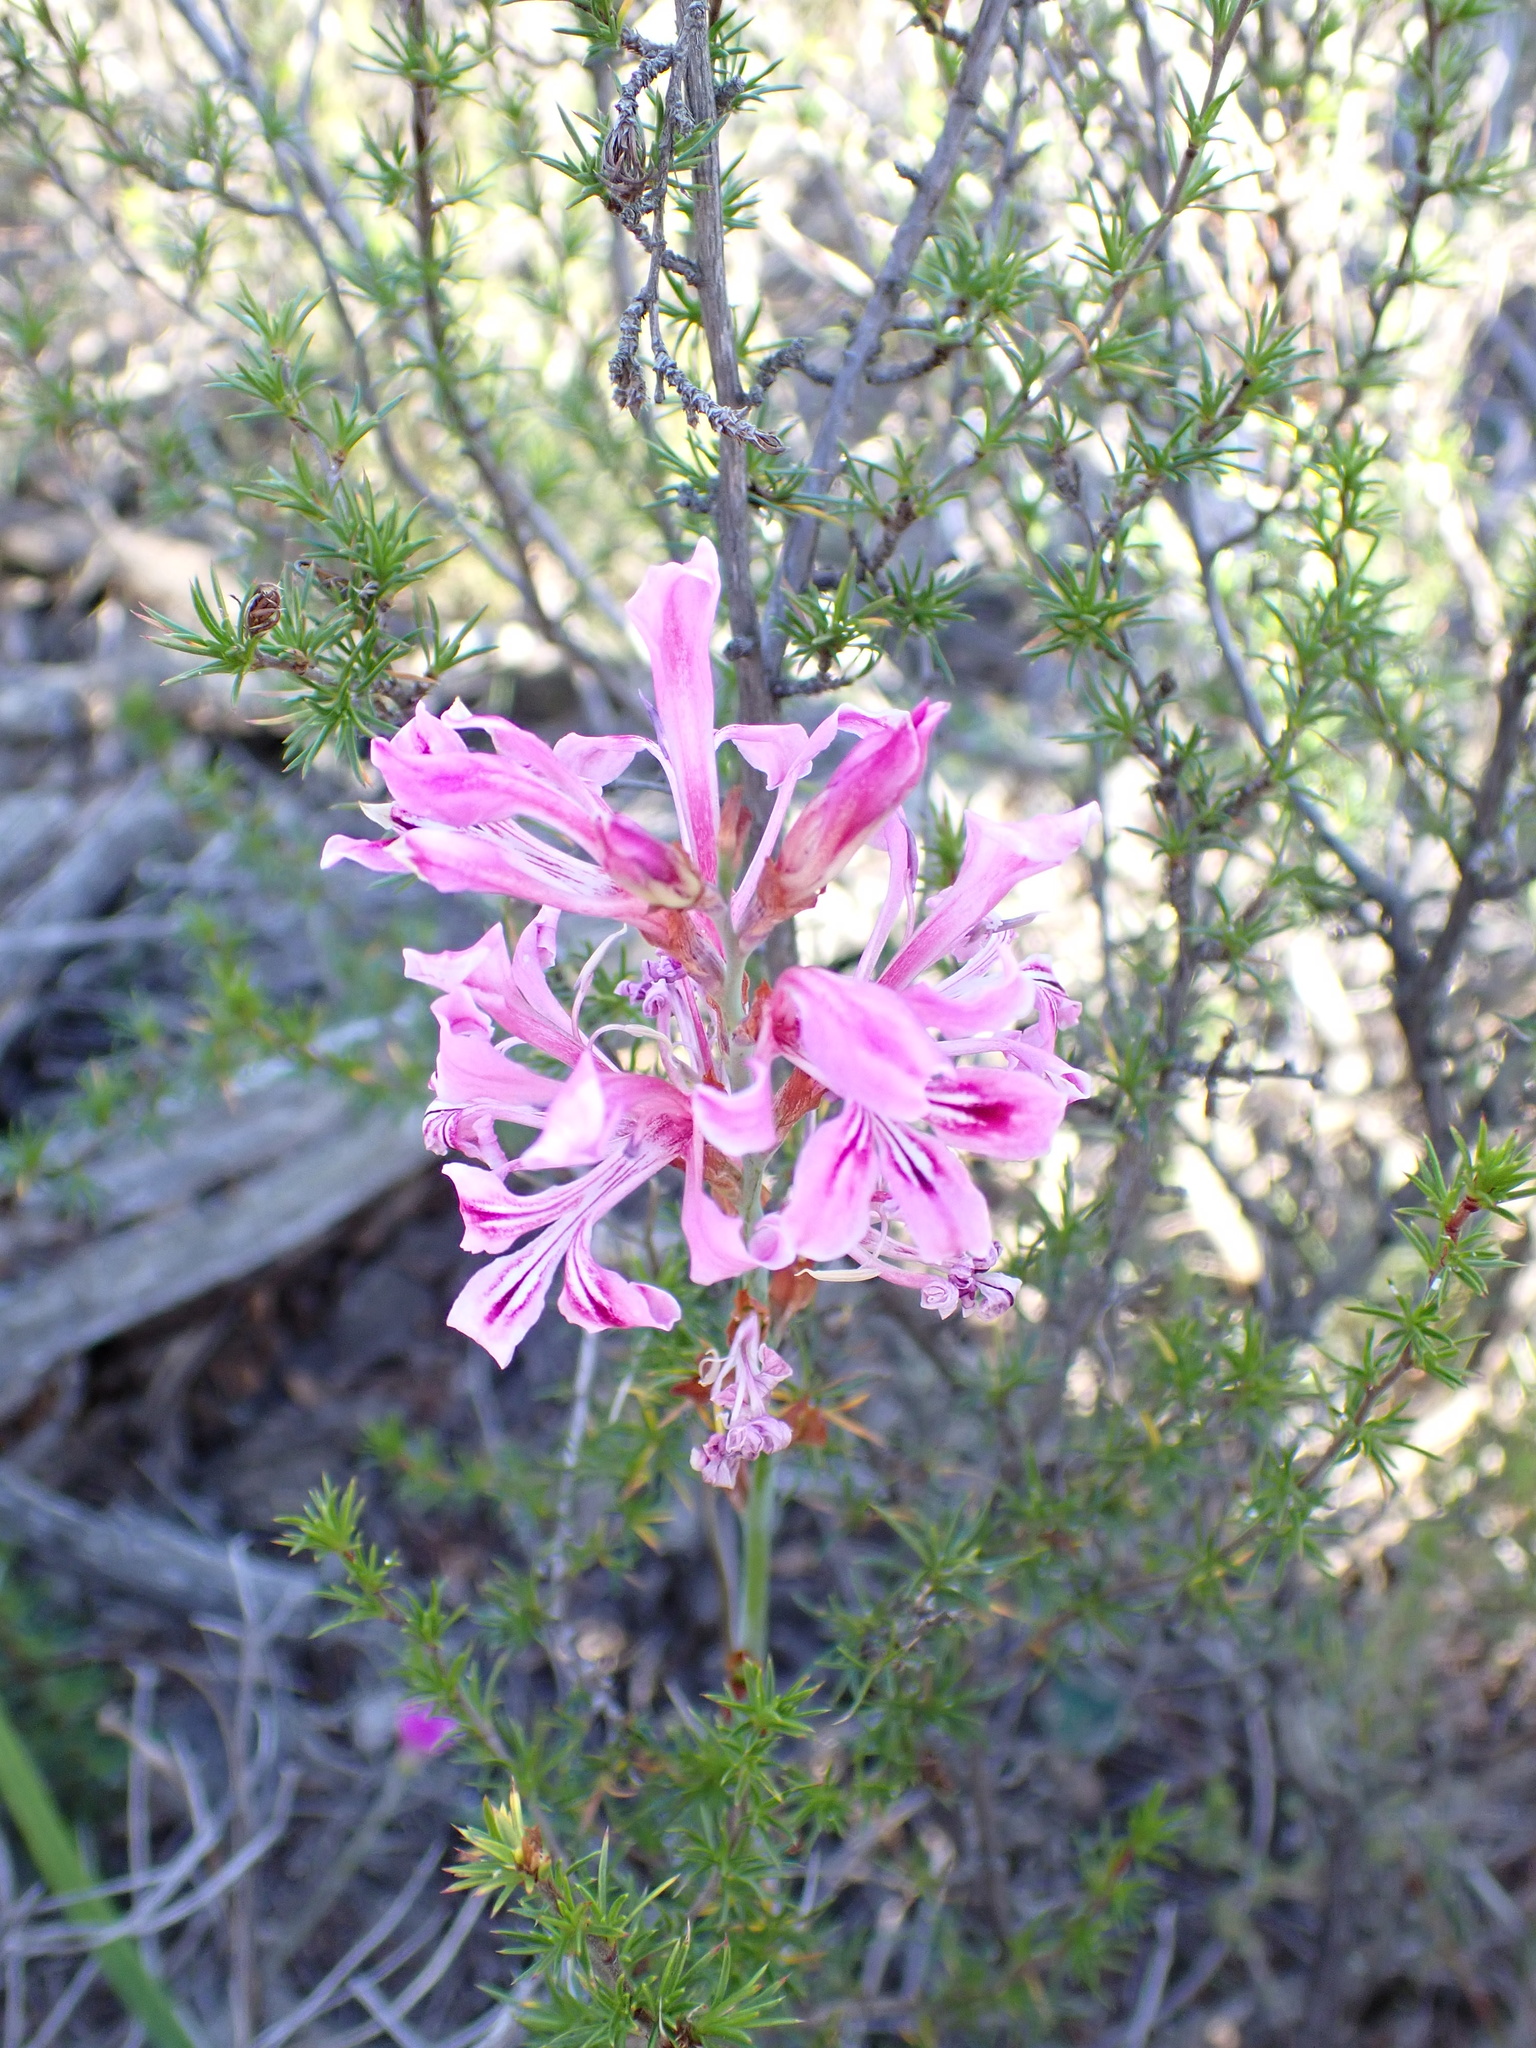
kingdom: Plantae
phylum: Tracheophyta
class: Liliopsida
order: Asparagales
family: Iridaceae
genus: Tritoniopsis
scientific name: Tritoniopsis lata
